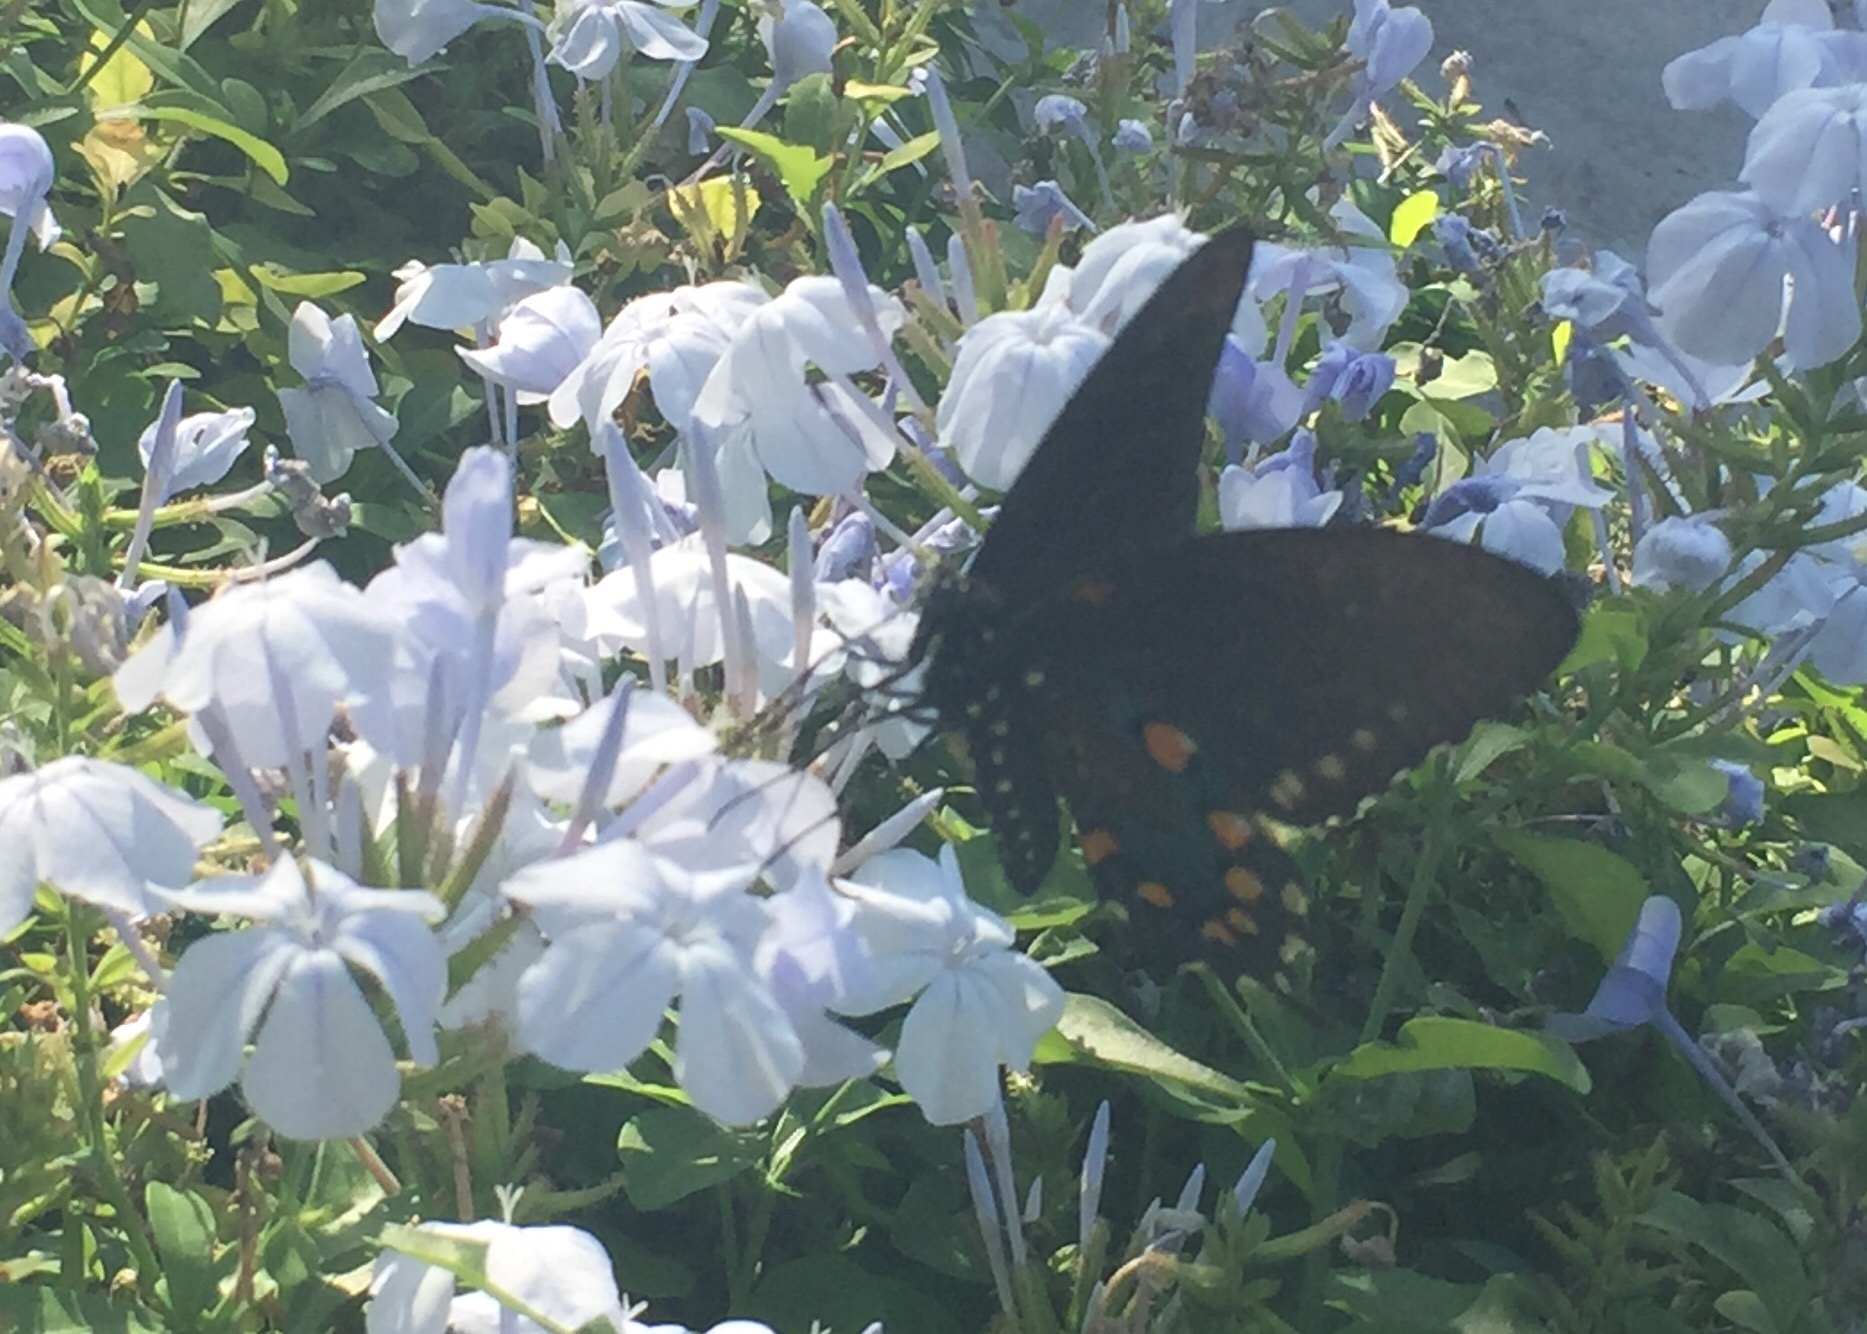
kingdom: Animalia
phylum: Arthropoda
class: Insecta
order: Lepidoptera
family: Papilionidae
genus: Battus
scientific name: Battus philenor
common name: Pipevine swallowtail
